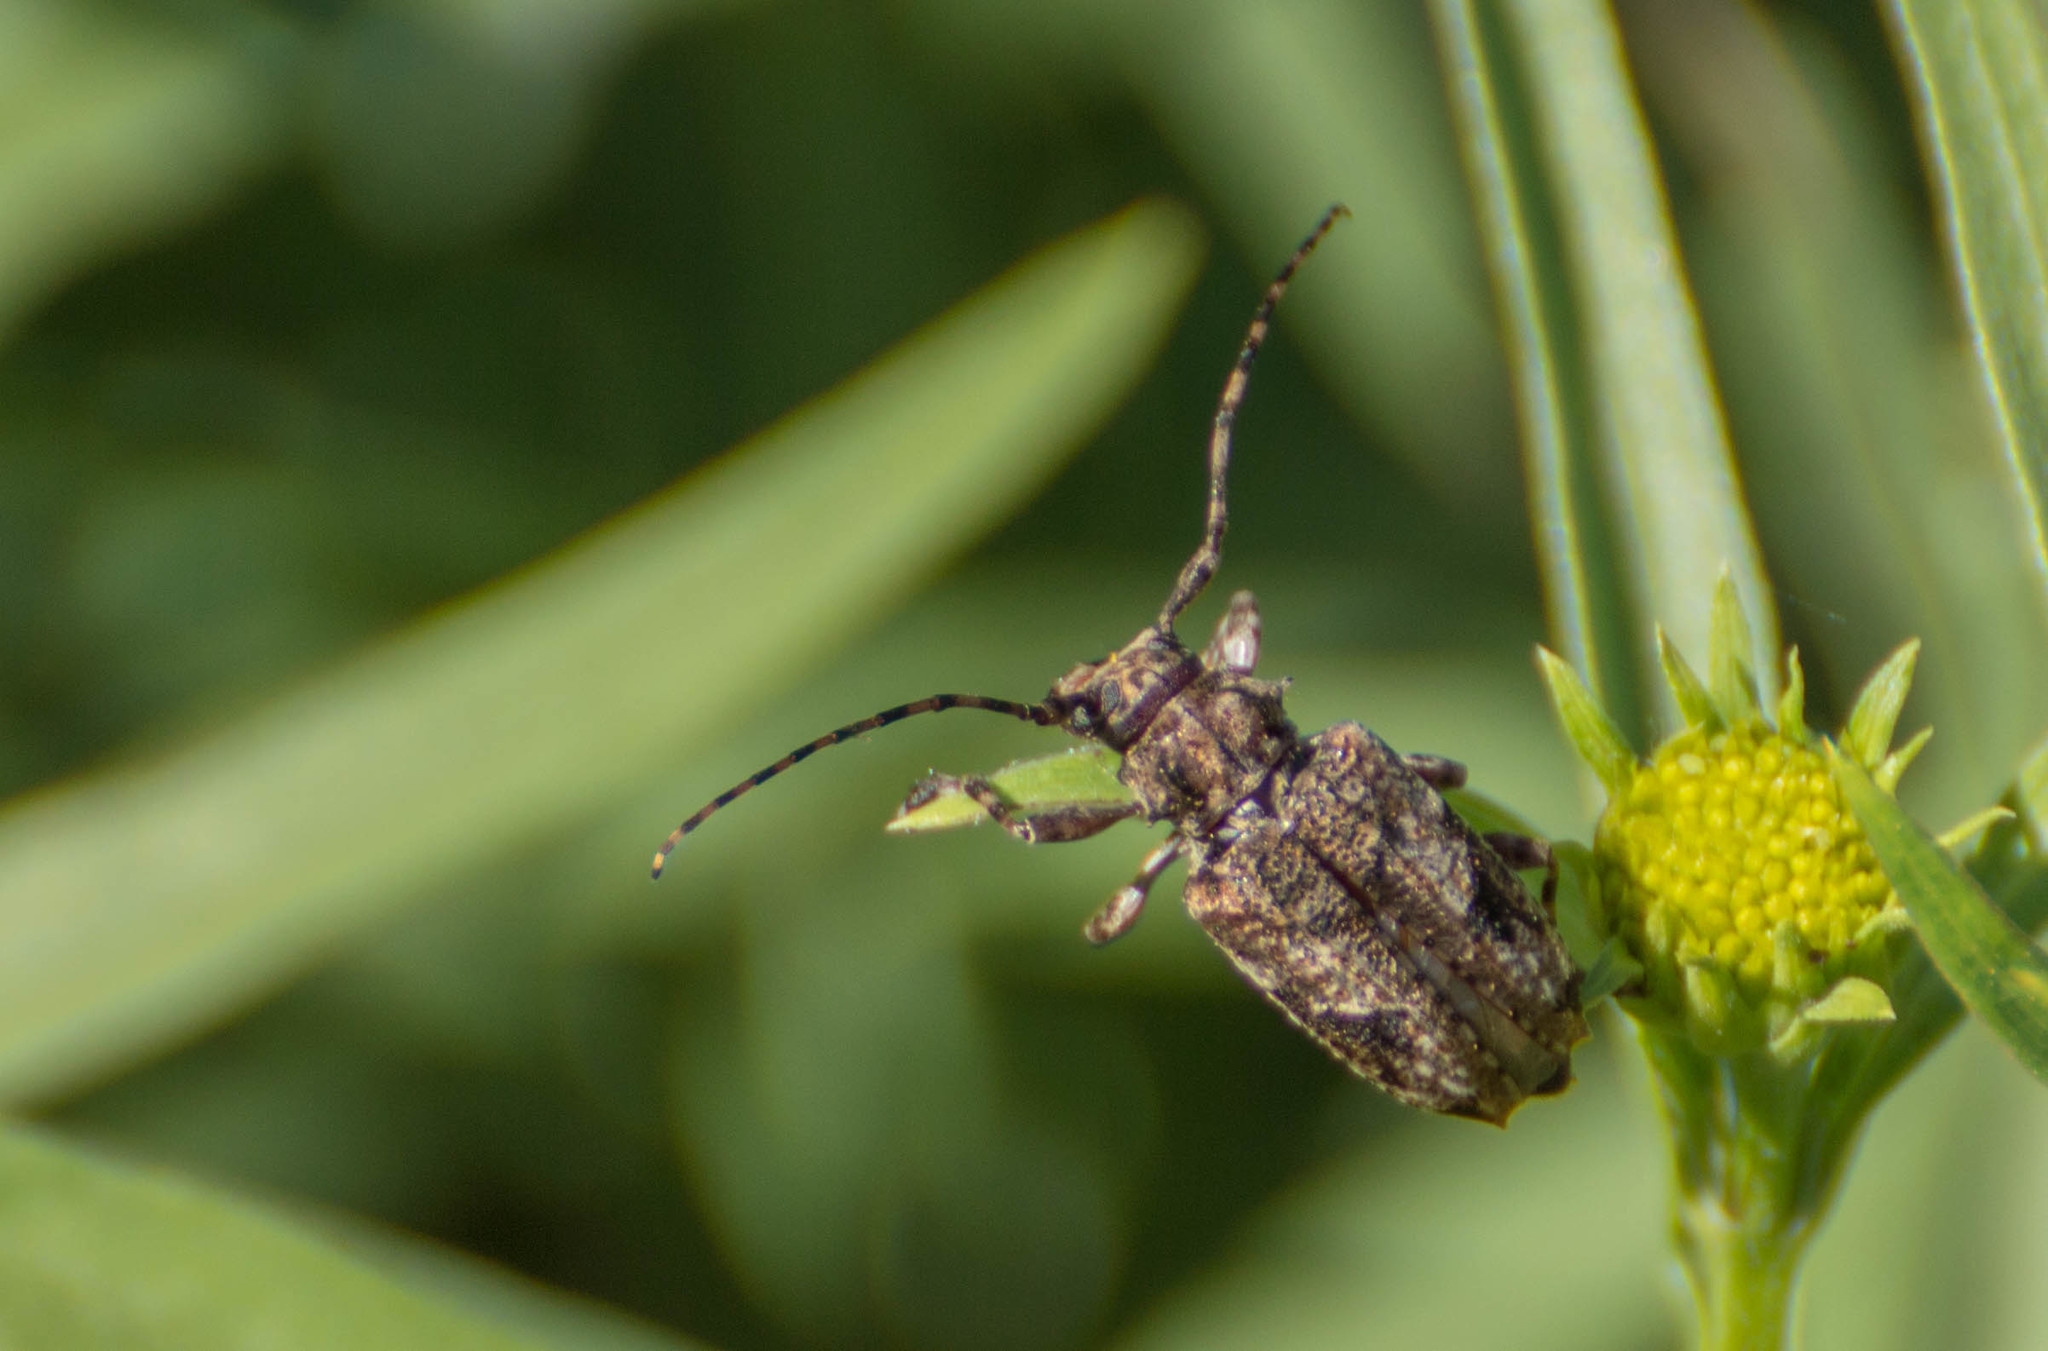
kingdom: Animalia
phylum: Arthropoda
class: Insecta
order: Coleoptera
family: Cerambycidae
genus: Psapharochrus
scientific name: Psapharochrus jaspideus
